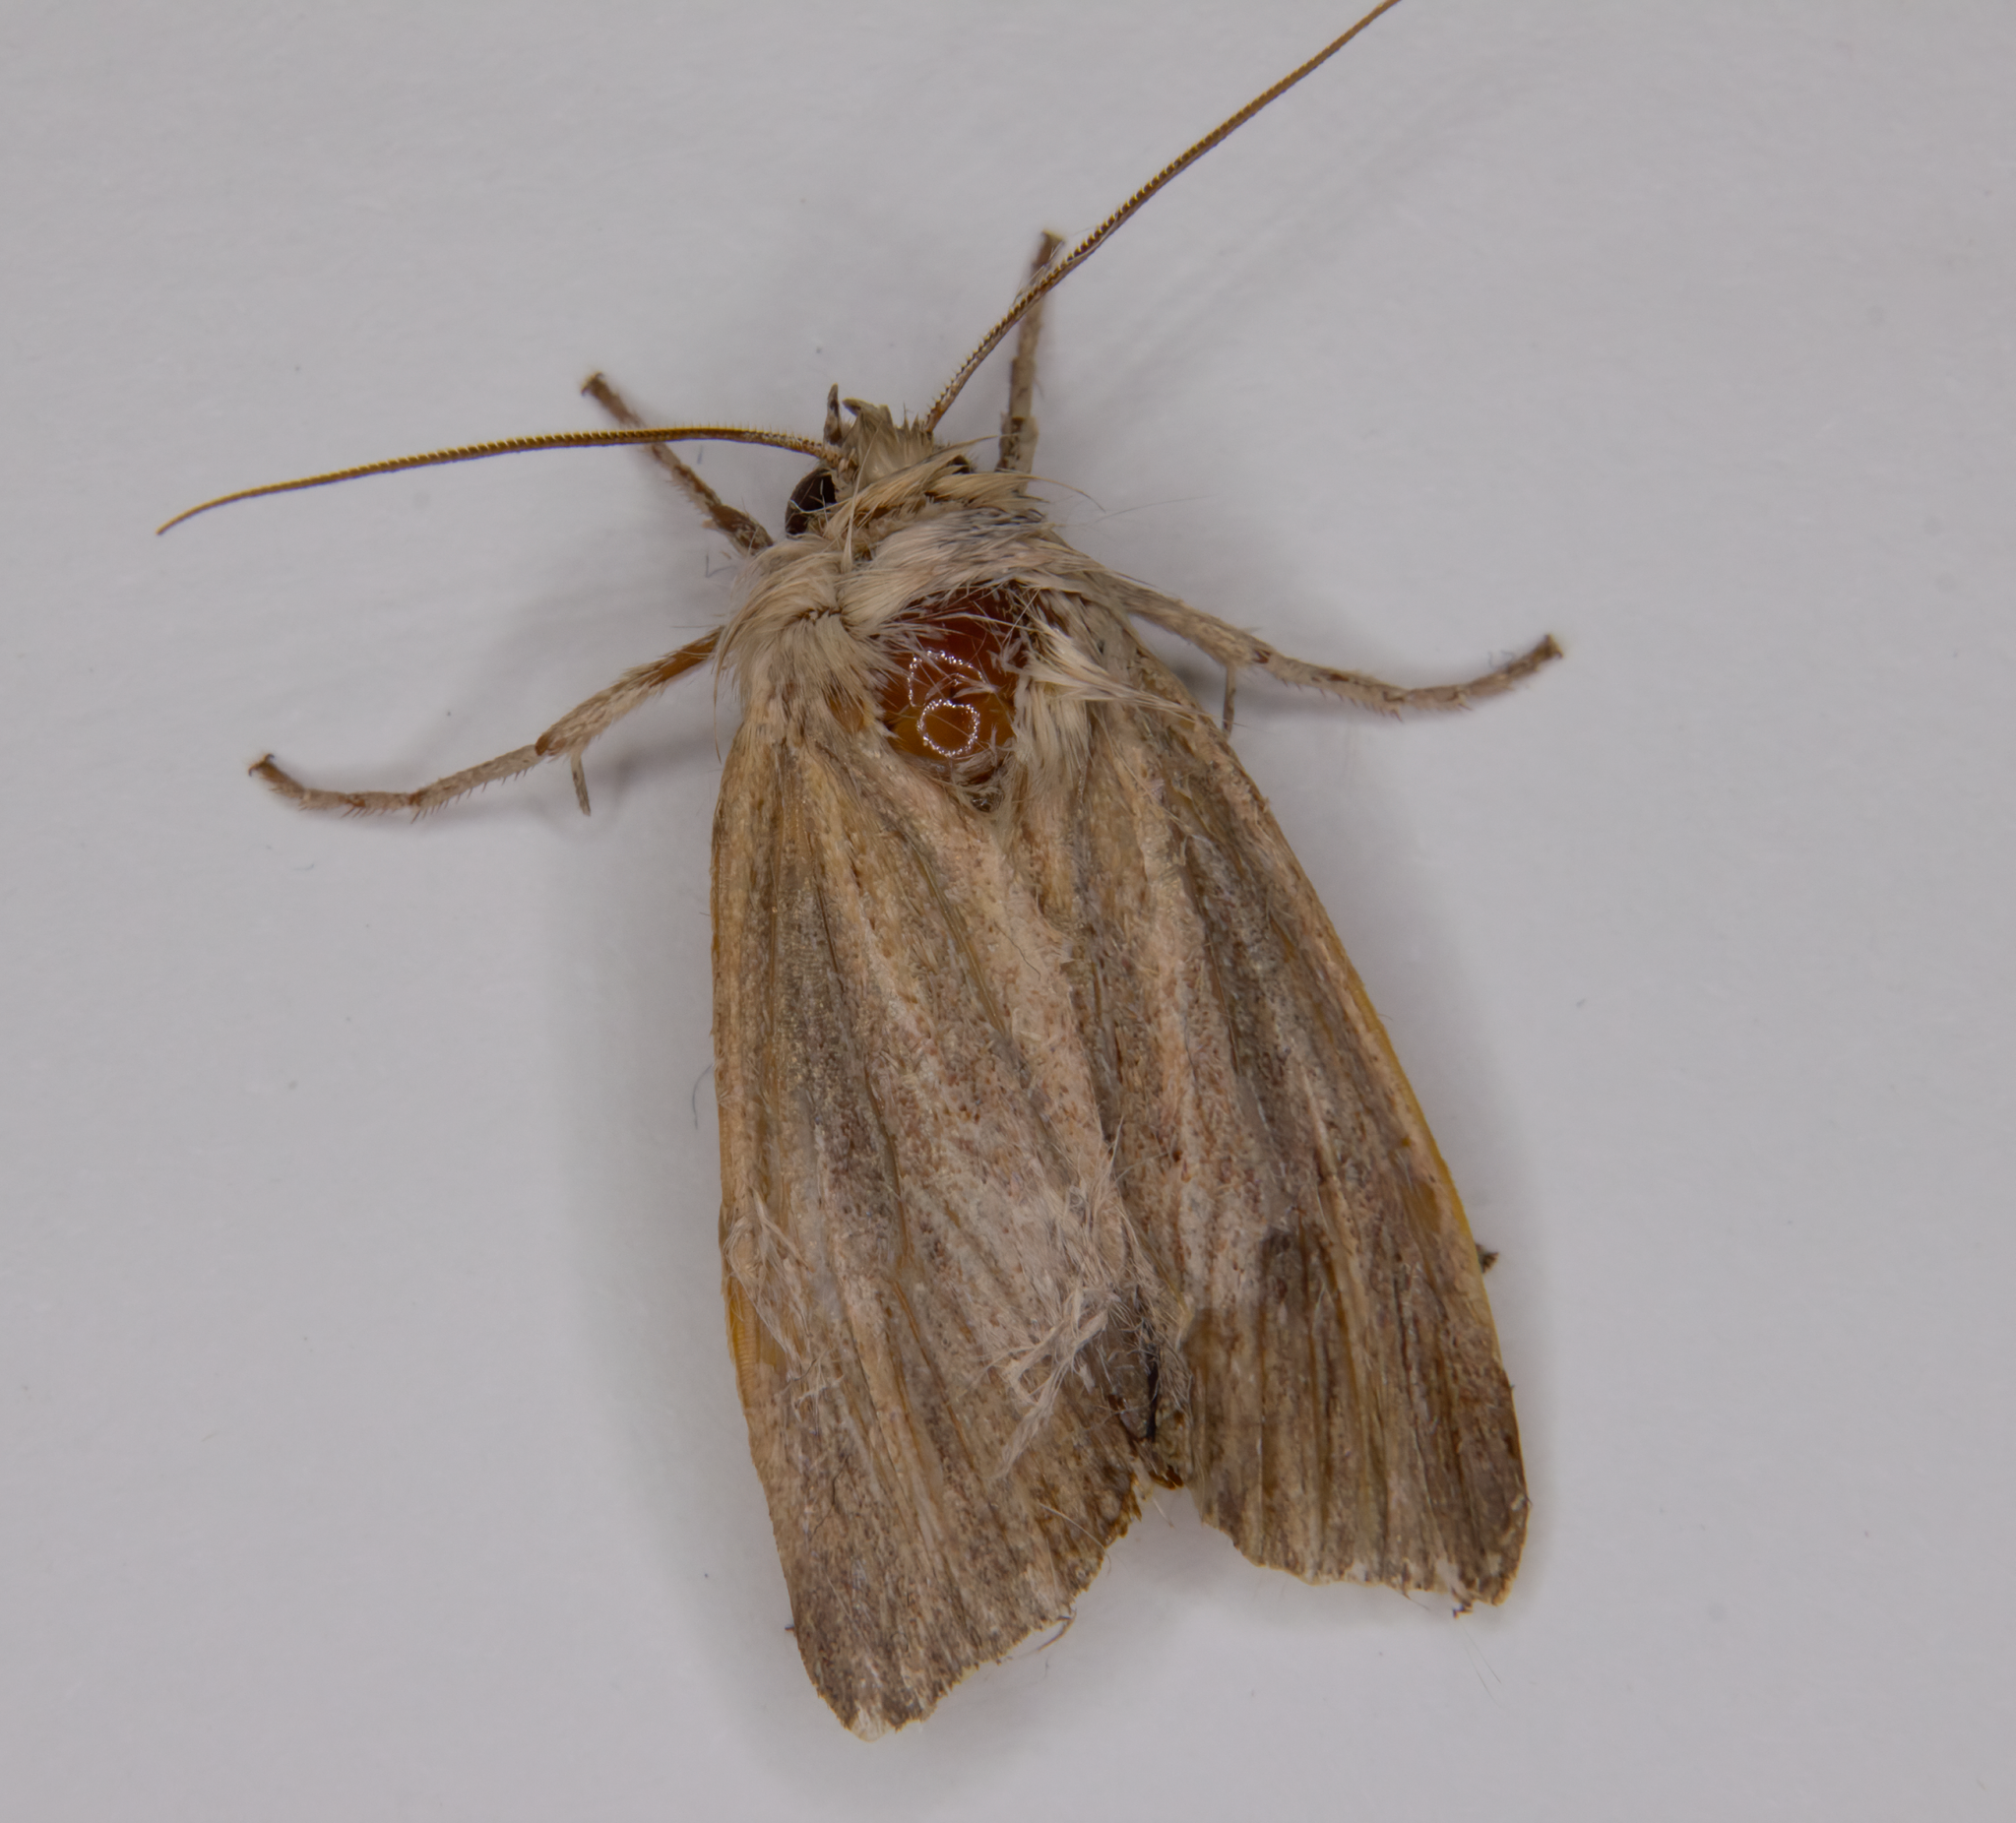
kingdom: Animalia
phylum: Arthropoda
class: Insecta
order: Lepidoptera
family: Noctuidae
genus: Ichneutica
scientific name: Ichneutica arotis
